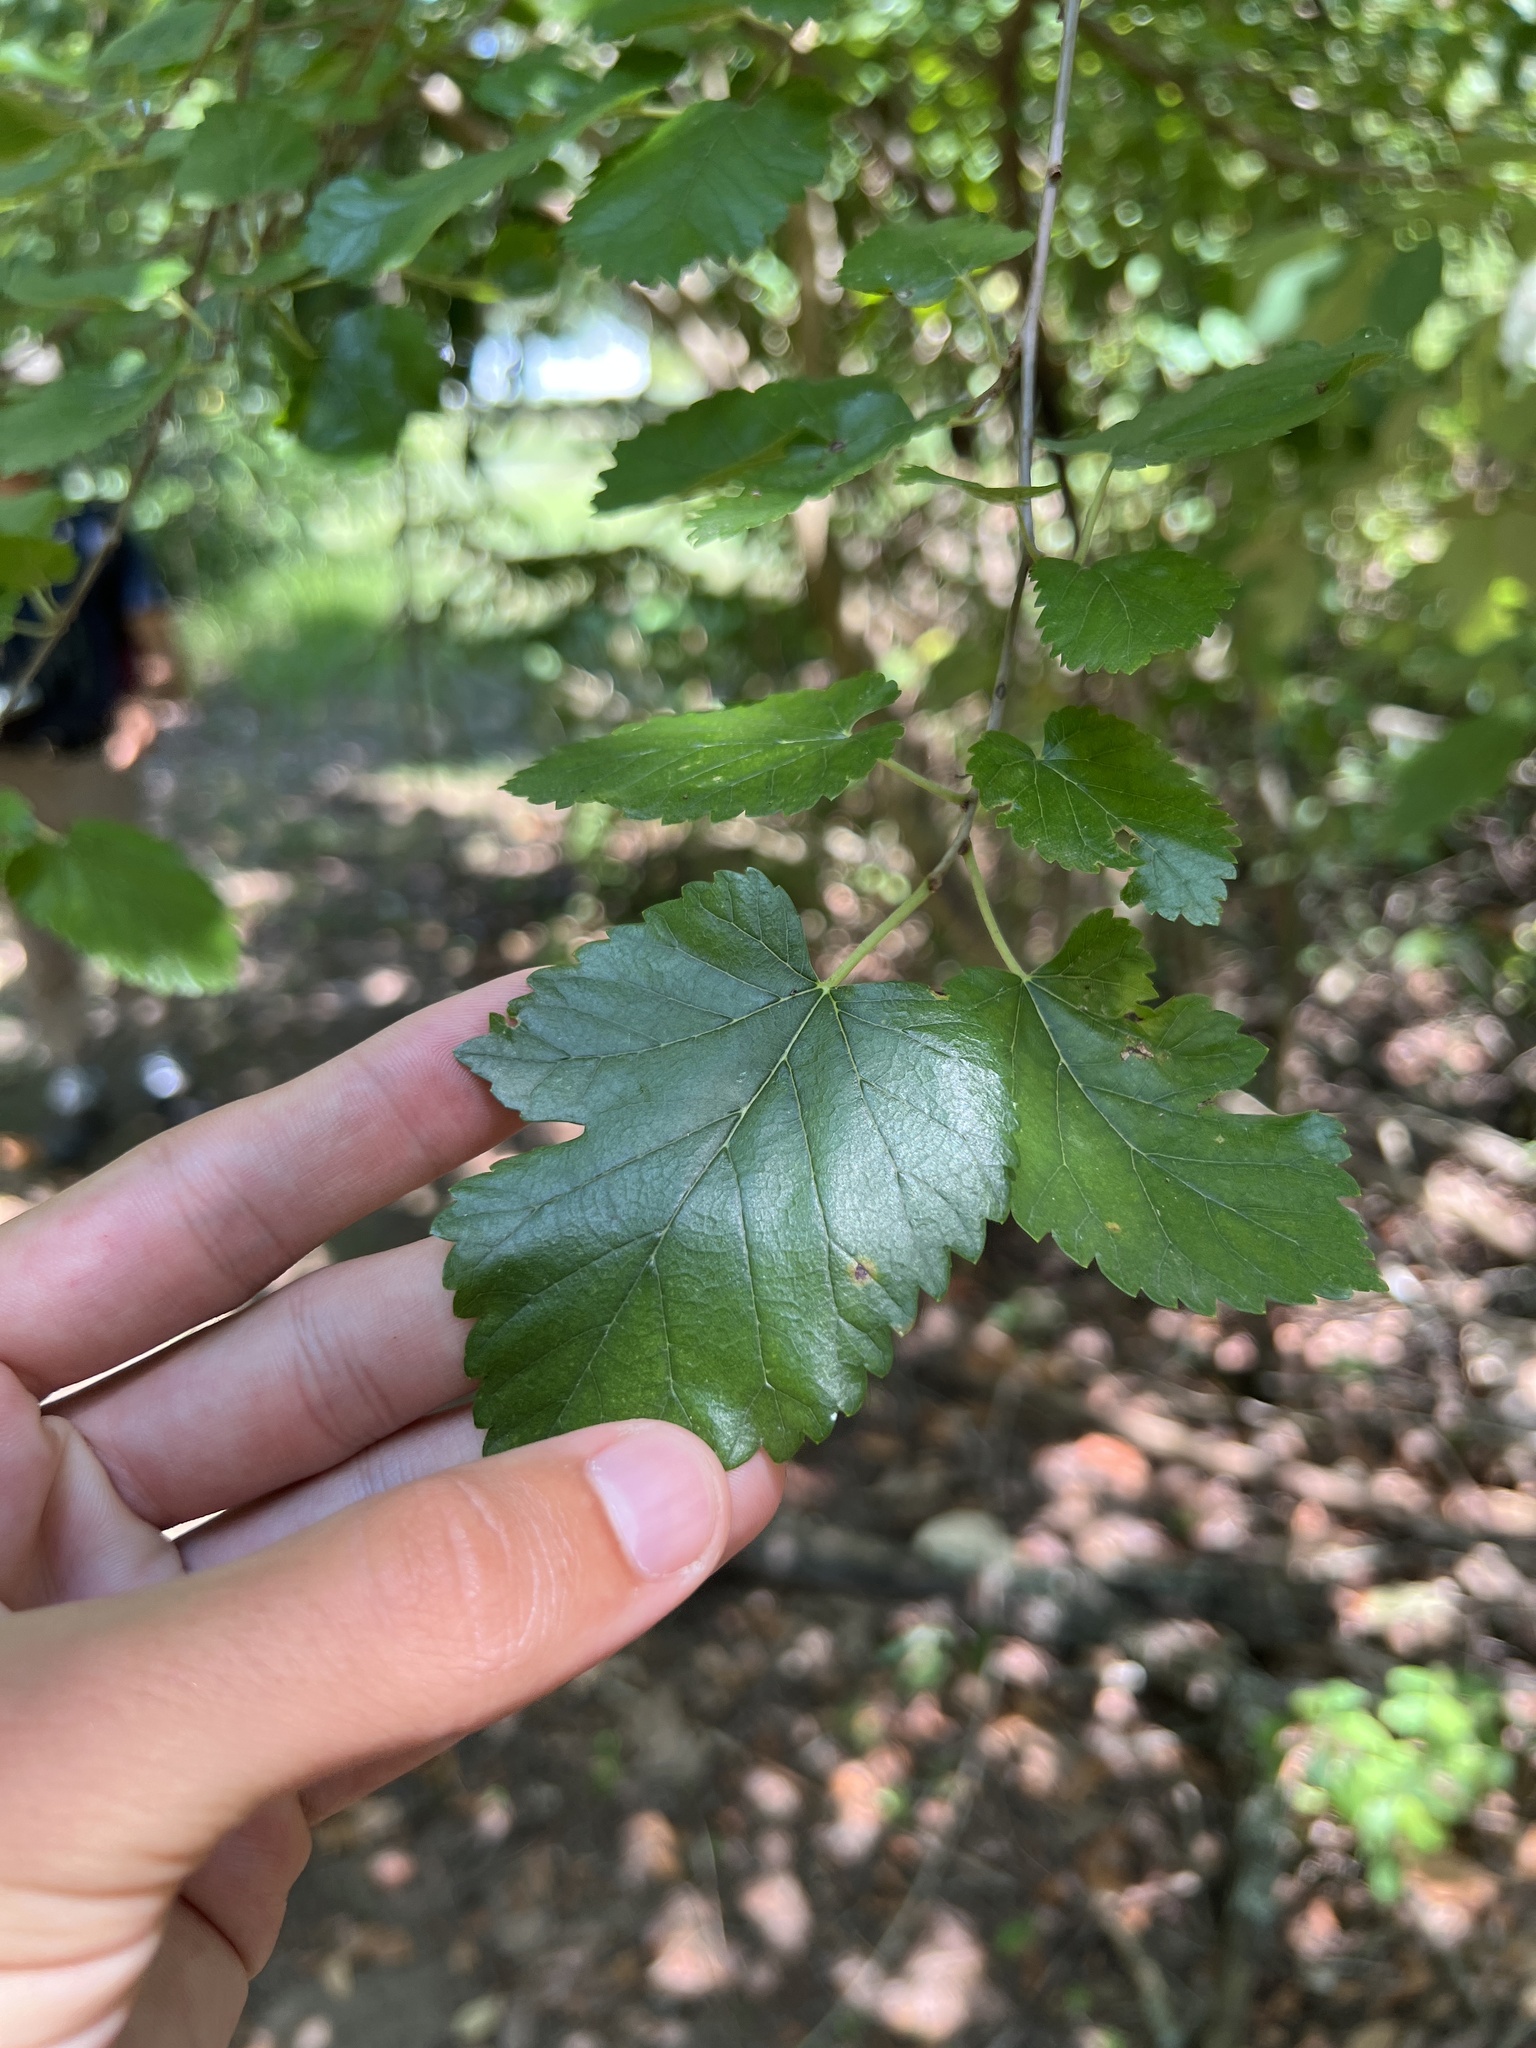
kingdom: Plantae
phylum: Tracheophyta
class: Magnoliopsida
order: Rosales
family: Moraceae
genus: Morus
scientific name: Morus alba
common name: White mulberry
